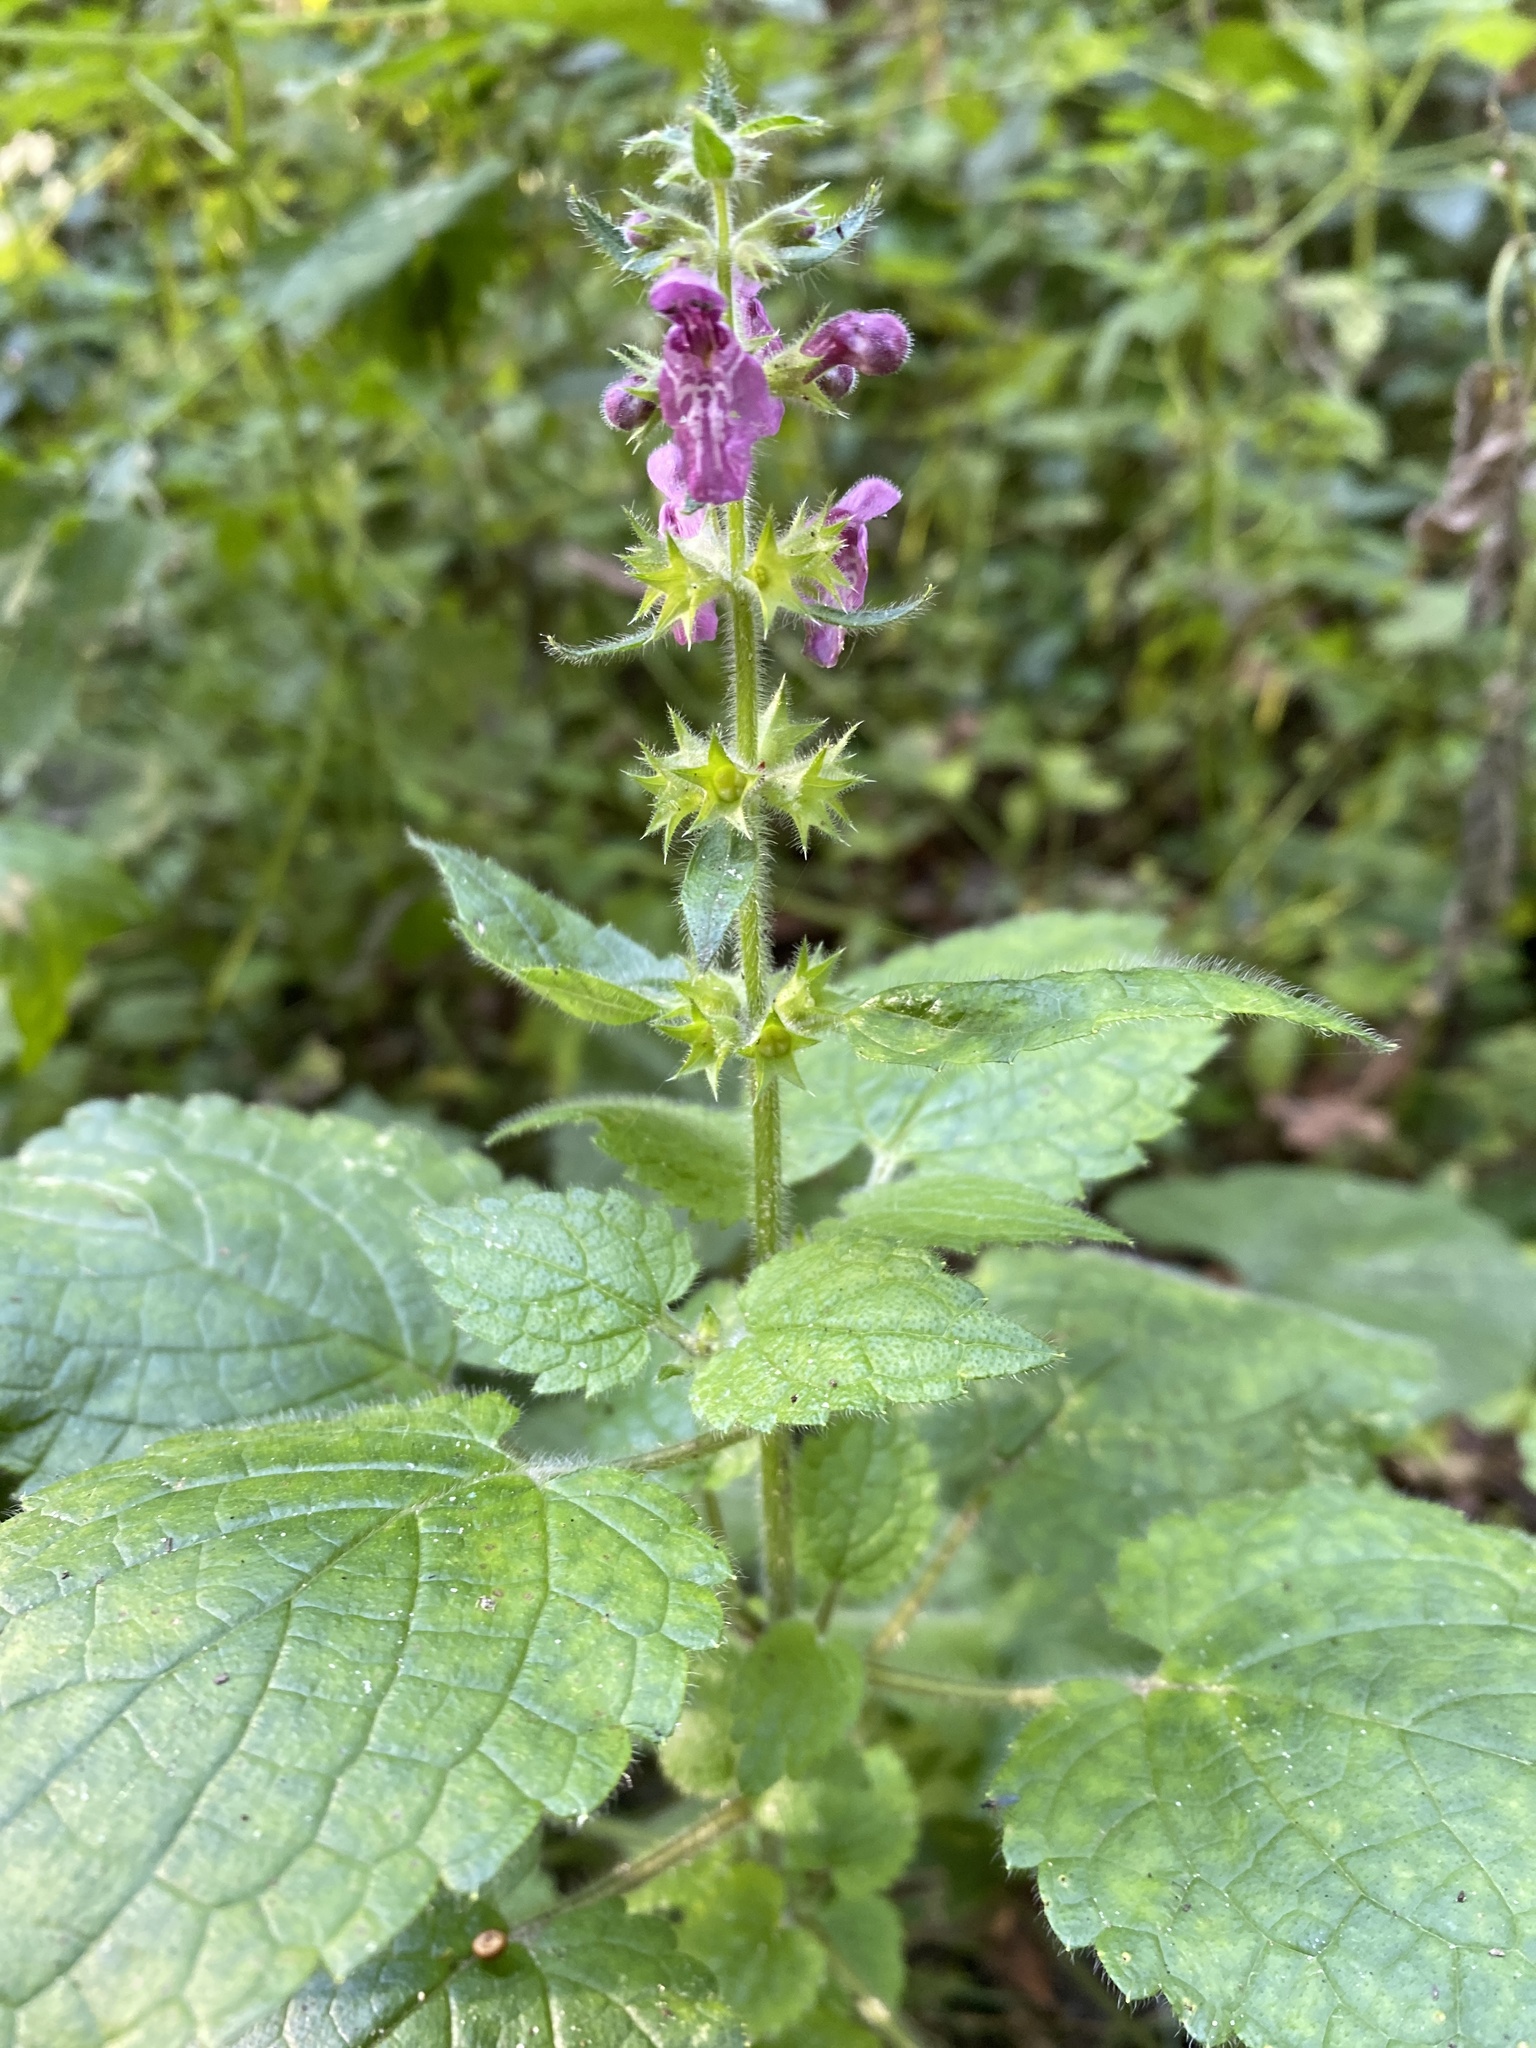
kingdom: Plantae
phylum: Tracheophyta
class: Magnoliopsida
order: Lamiales
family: Lamiaceae
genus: Stachys
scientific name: Stachys sylvatica
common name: Hedge woundwort
